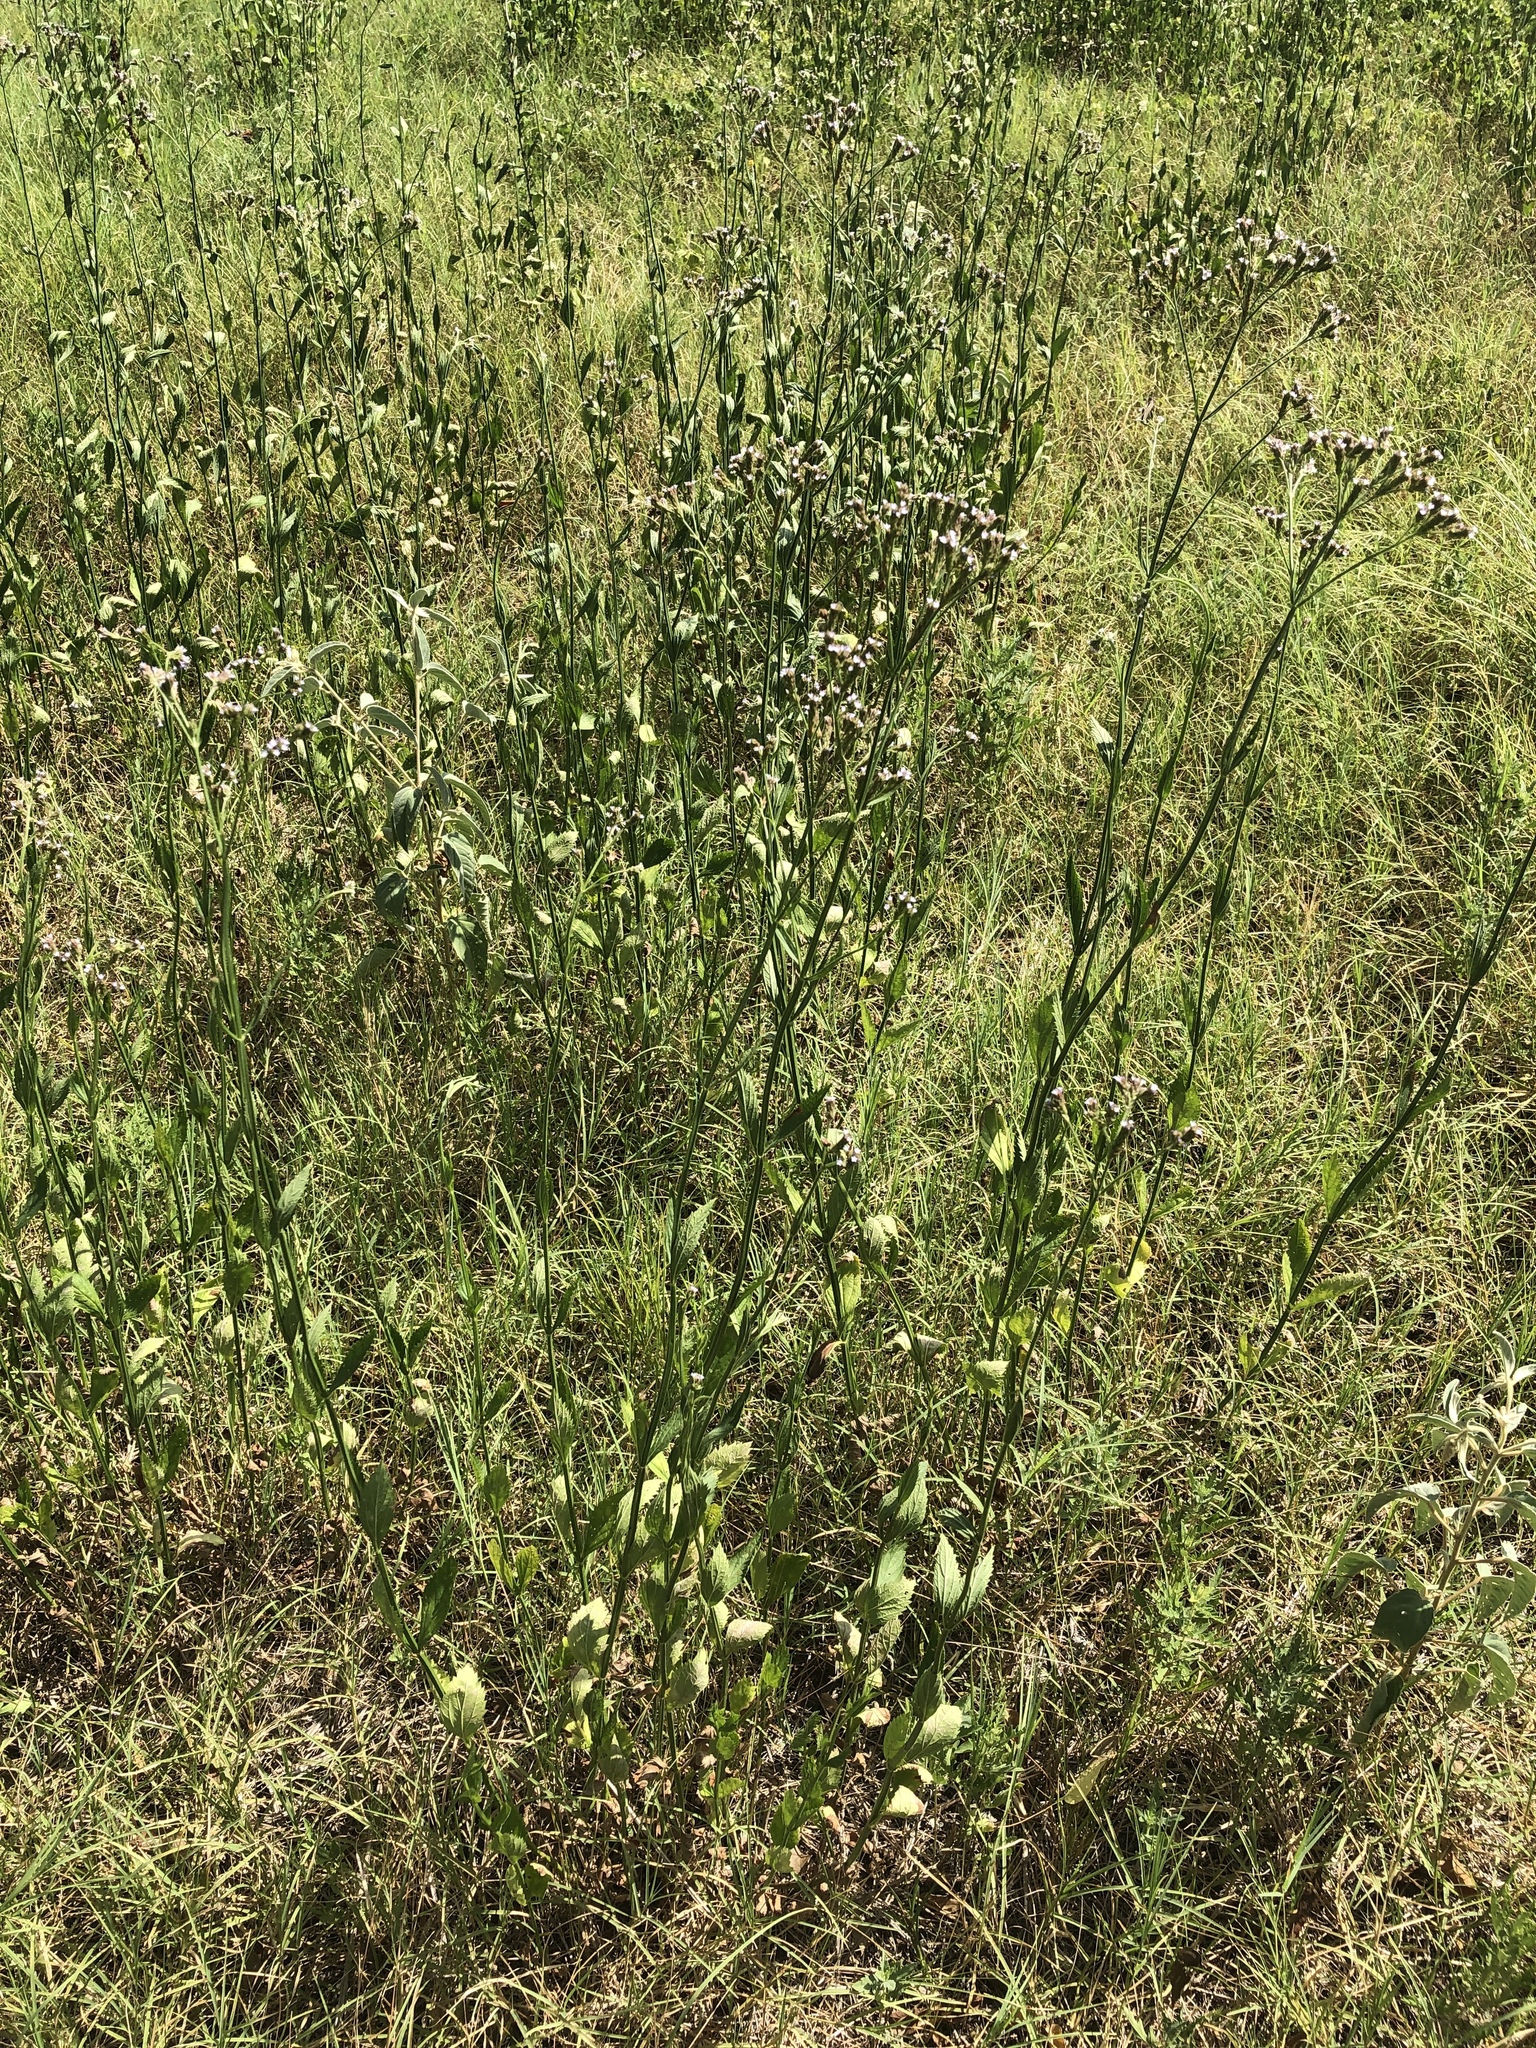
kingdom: Plantae
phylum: Tracheophyta
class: Magnoliopsida
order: Lamiales
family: Verbenaceae
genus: Verbena
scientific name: Verbena brasiliensis
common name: Brazilian vervain
